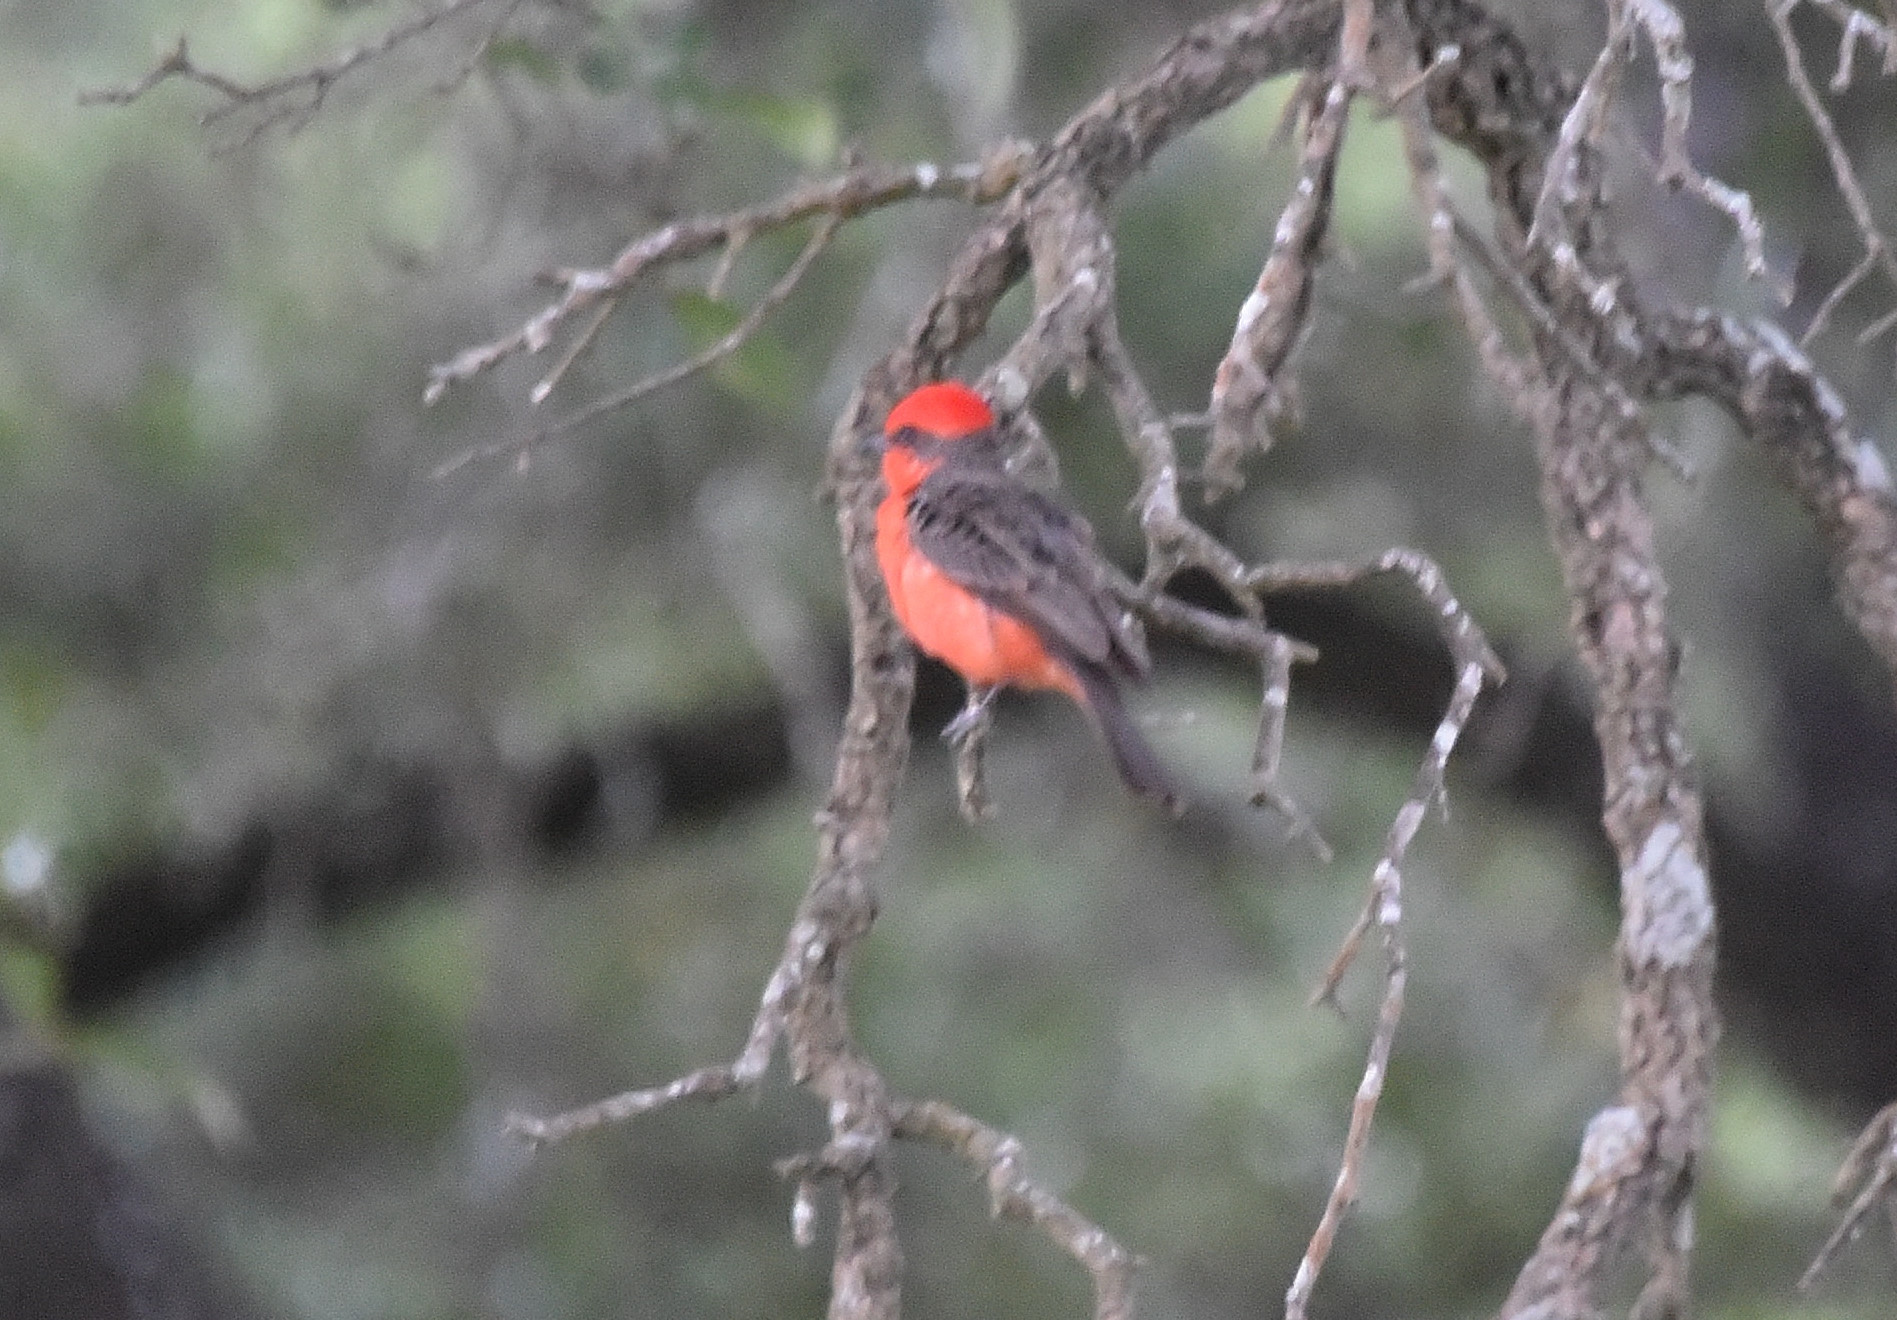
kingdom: Animalia
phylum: Chordata
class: Aves
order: Passeriformes
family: Tyrannidae
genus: Pyrocephalus
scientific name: Pyrocephalus rubinus
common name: Vermilion flycatcher
